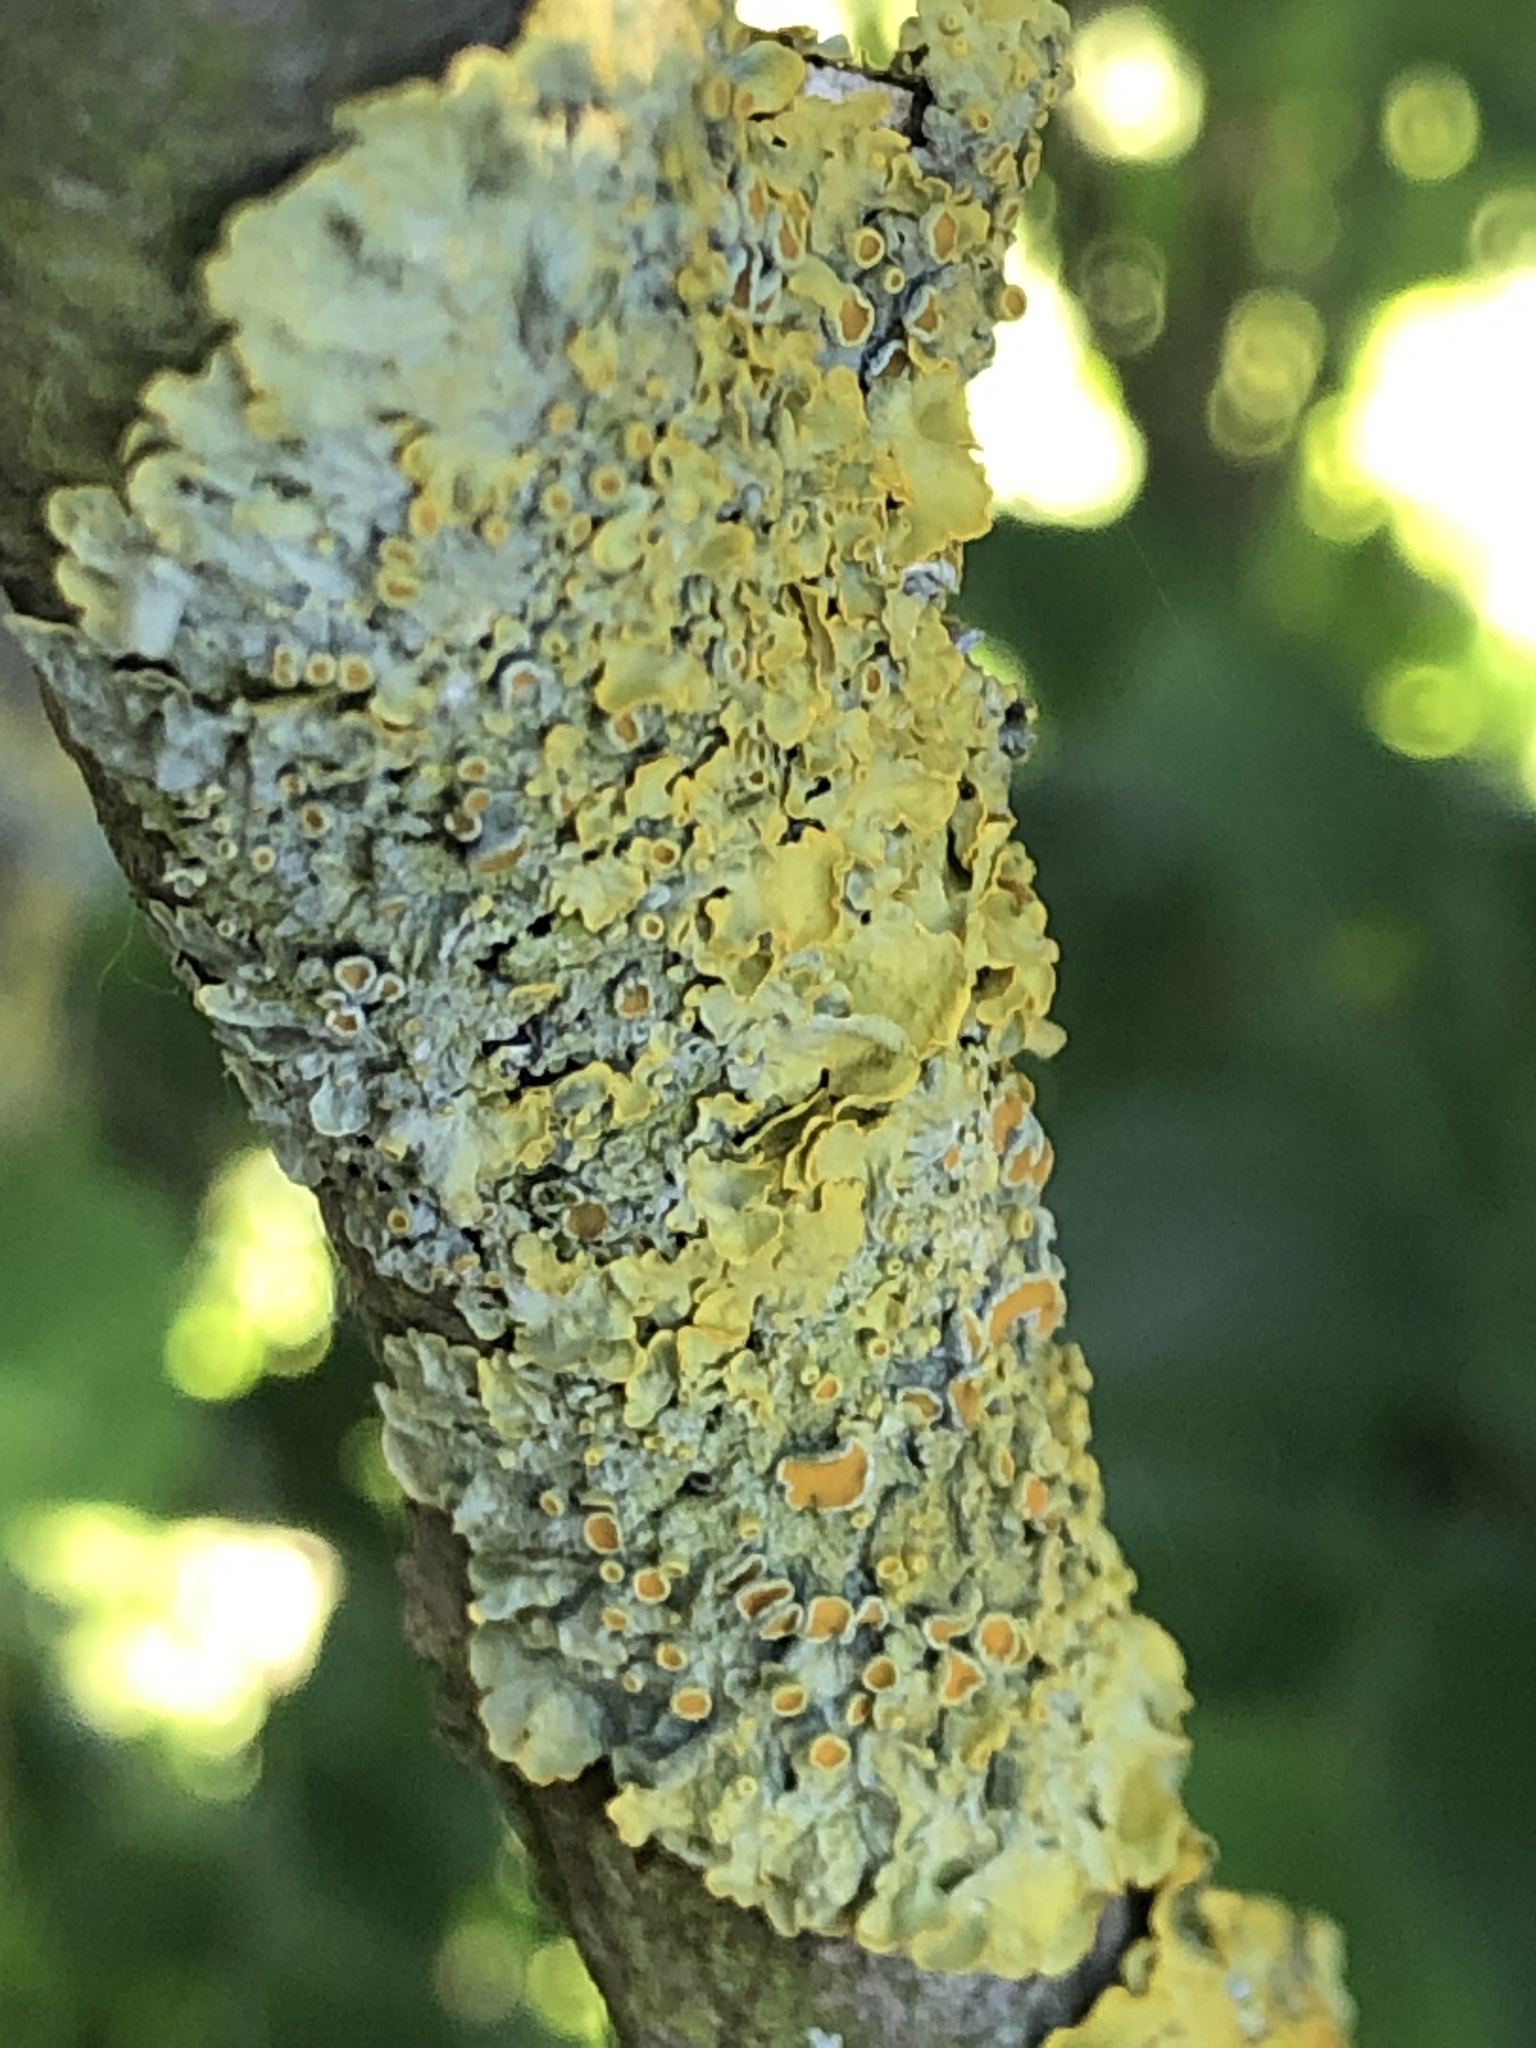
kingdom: Fungi
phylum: Ascomycota
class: Lecanoromycetes
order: Teloschistales
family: Teloschistaceae
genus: Xanthoria
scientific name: Xanthoria parietina
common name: Common orange lichen
